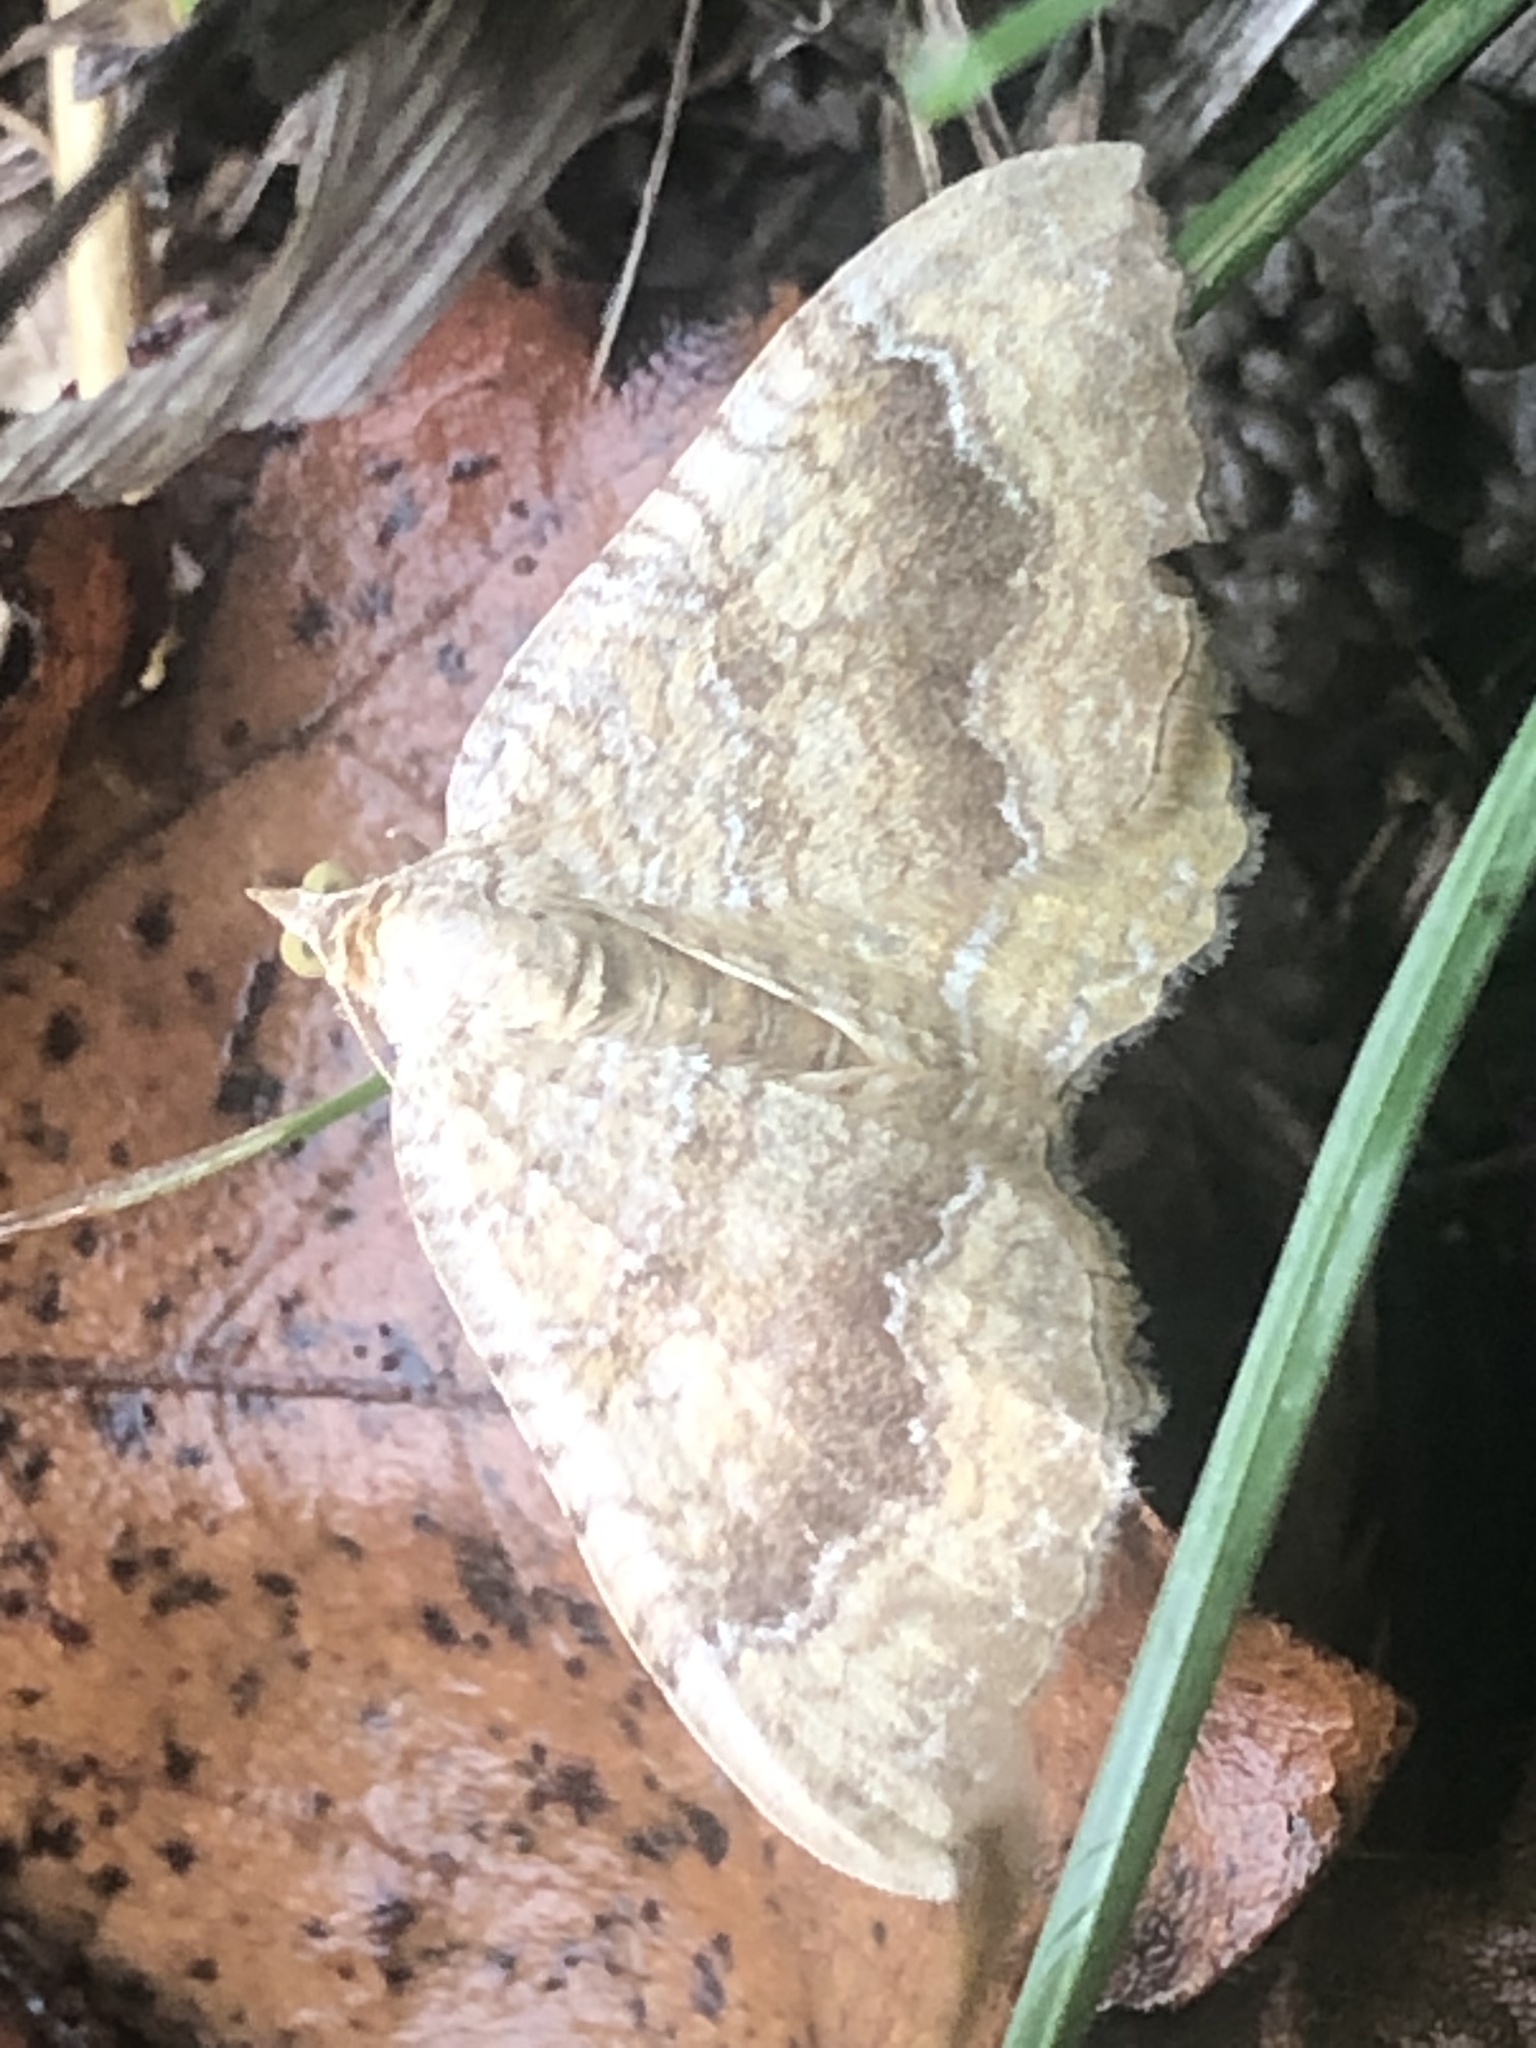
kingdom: Animalia
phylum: Arthropoda
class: Insecta
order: Lepidoptera
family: Geometridae
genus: Camptogramma
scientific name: Camptogramma bilineata
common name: Yellow shell
